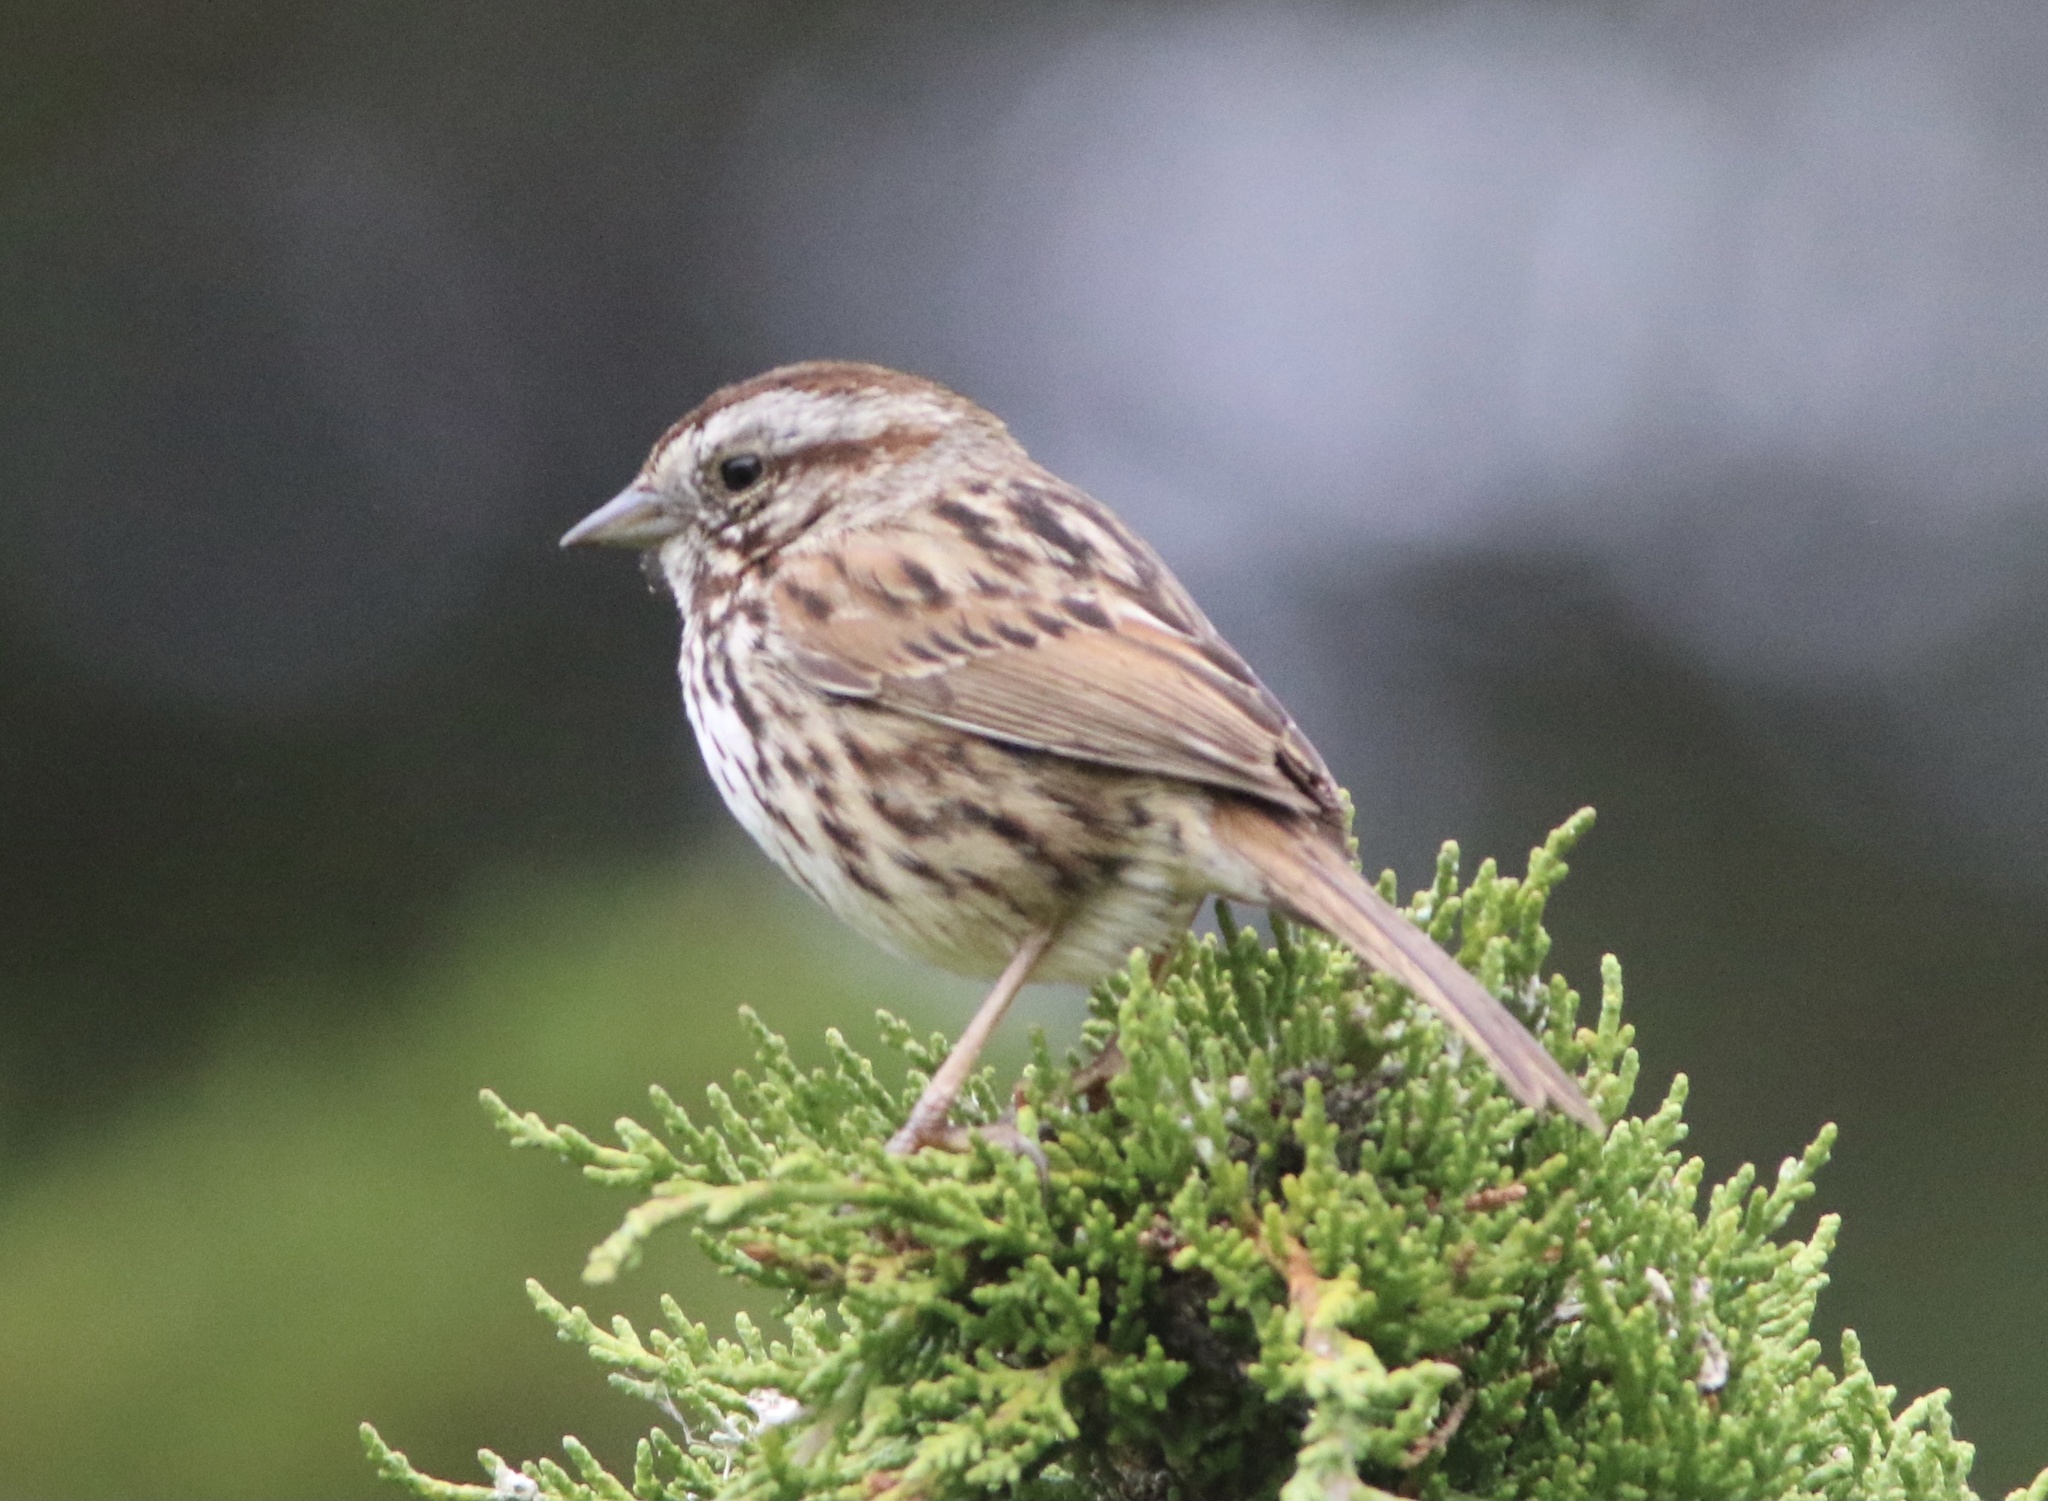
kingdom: Animalia
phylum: Chordata
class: Aves
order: Passeriformes
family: Passerellidae
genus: Melospiza
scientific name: Melospiza melodia
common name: Song sparrow
